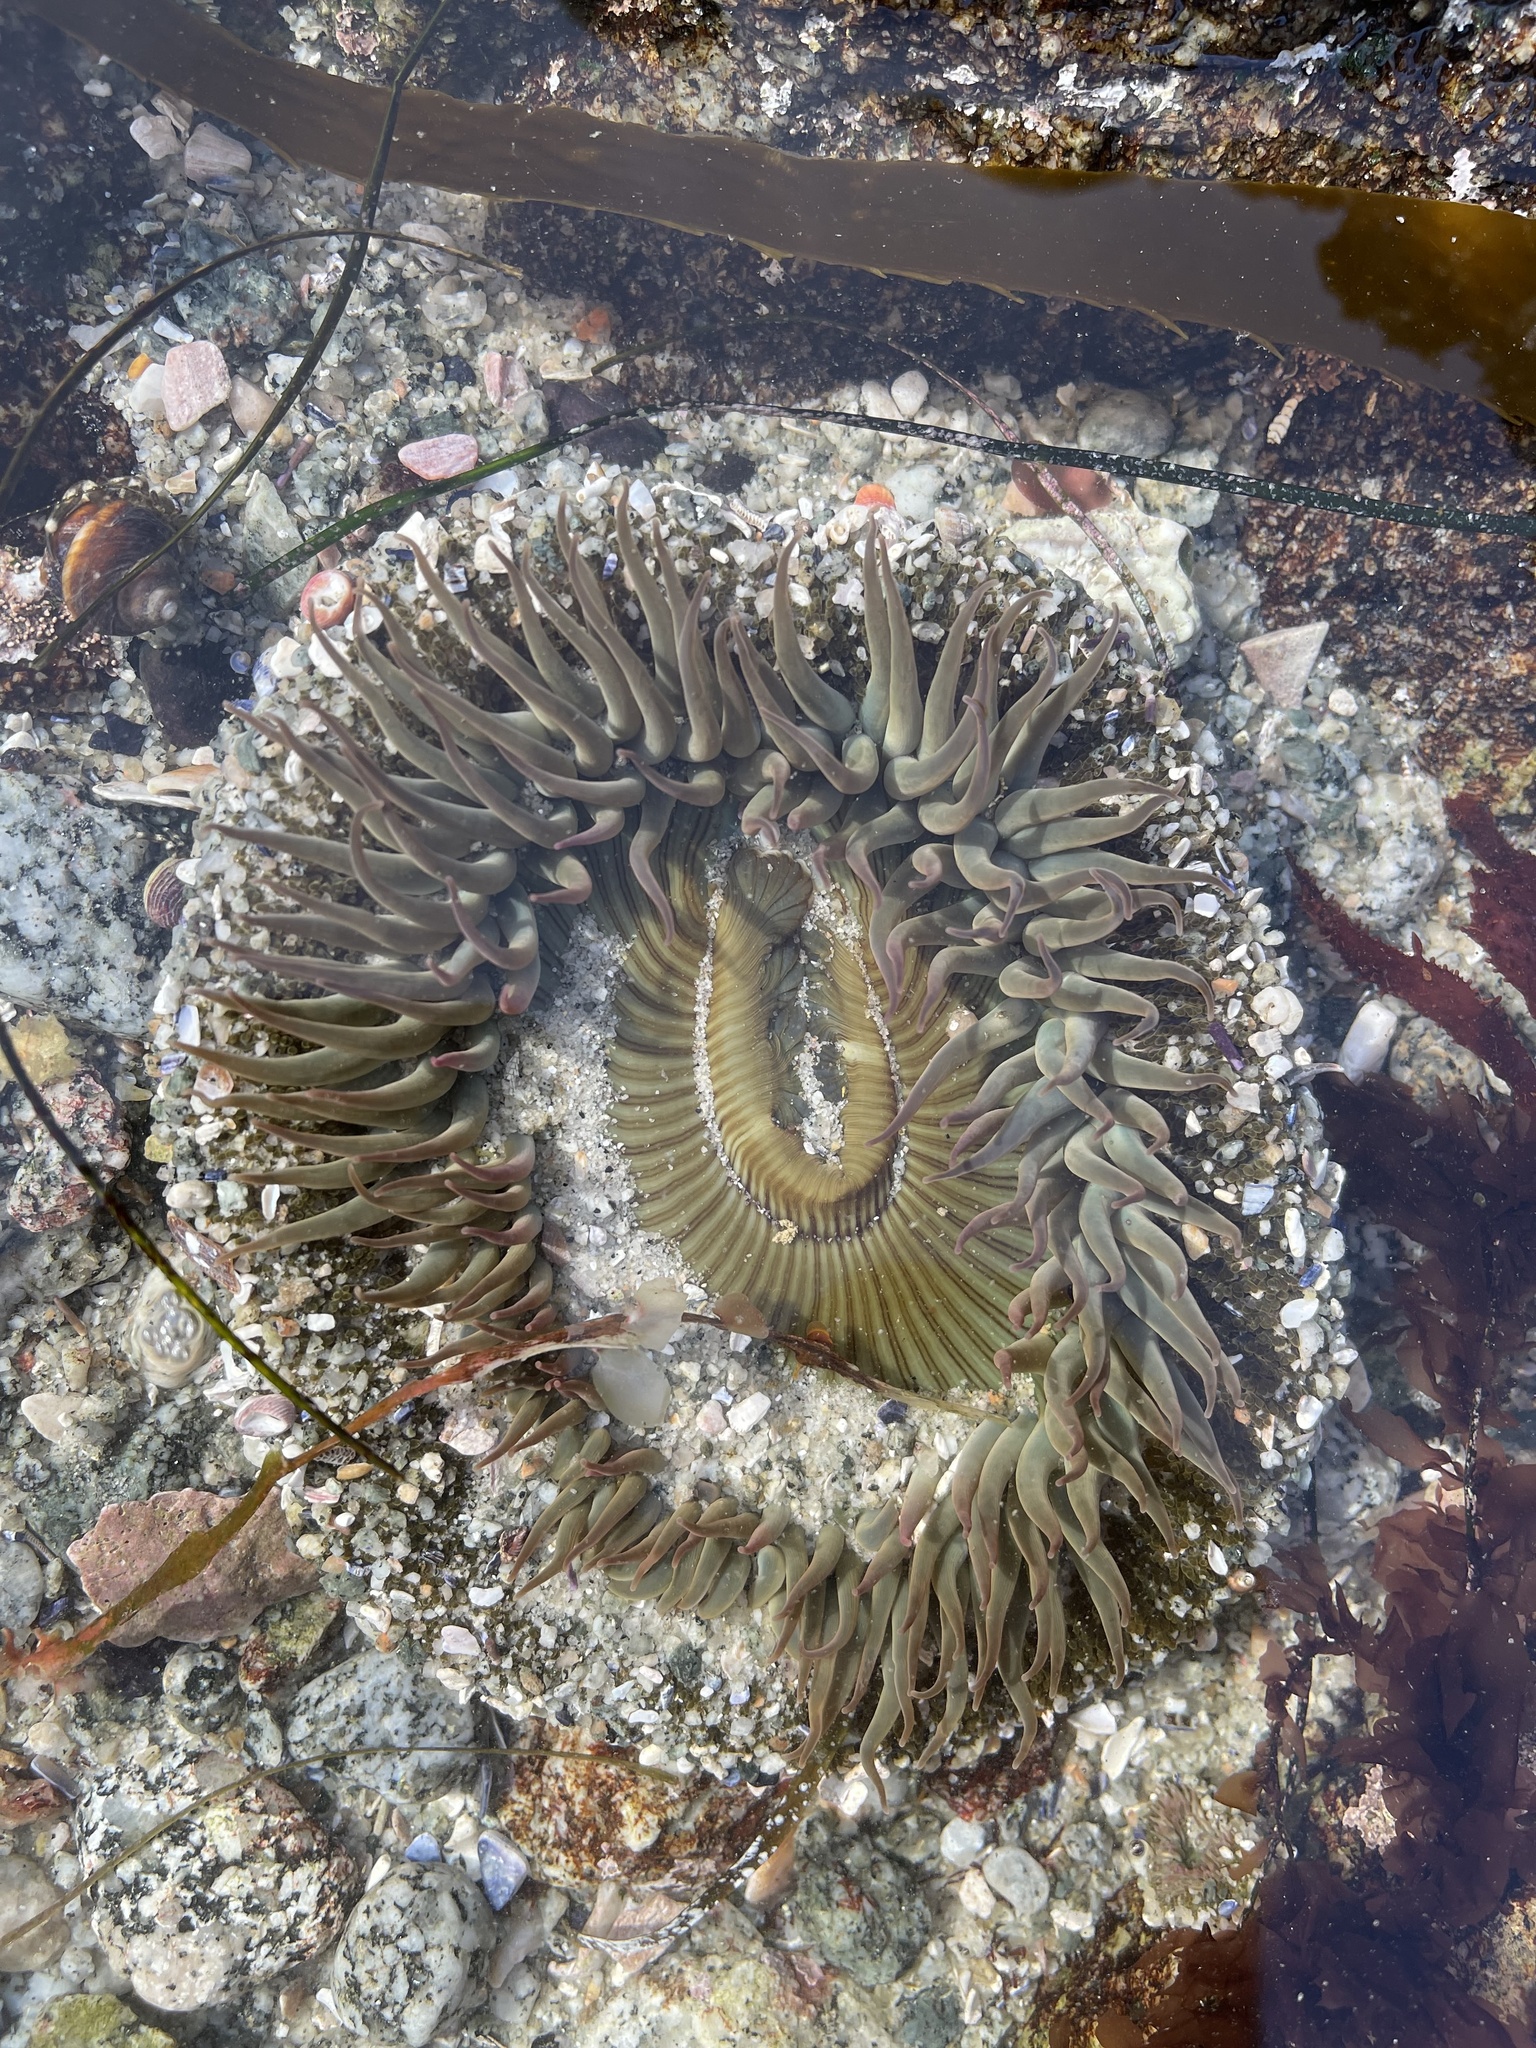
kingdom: Animalia
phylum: Cnidaria
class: Anthozoa
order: Actiniaria
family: Actiniidae
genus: Anthopleura
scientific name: Anthopleura sola
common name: Sun anemone
